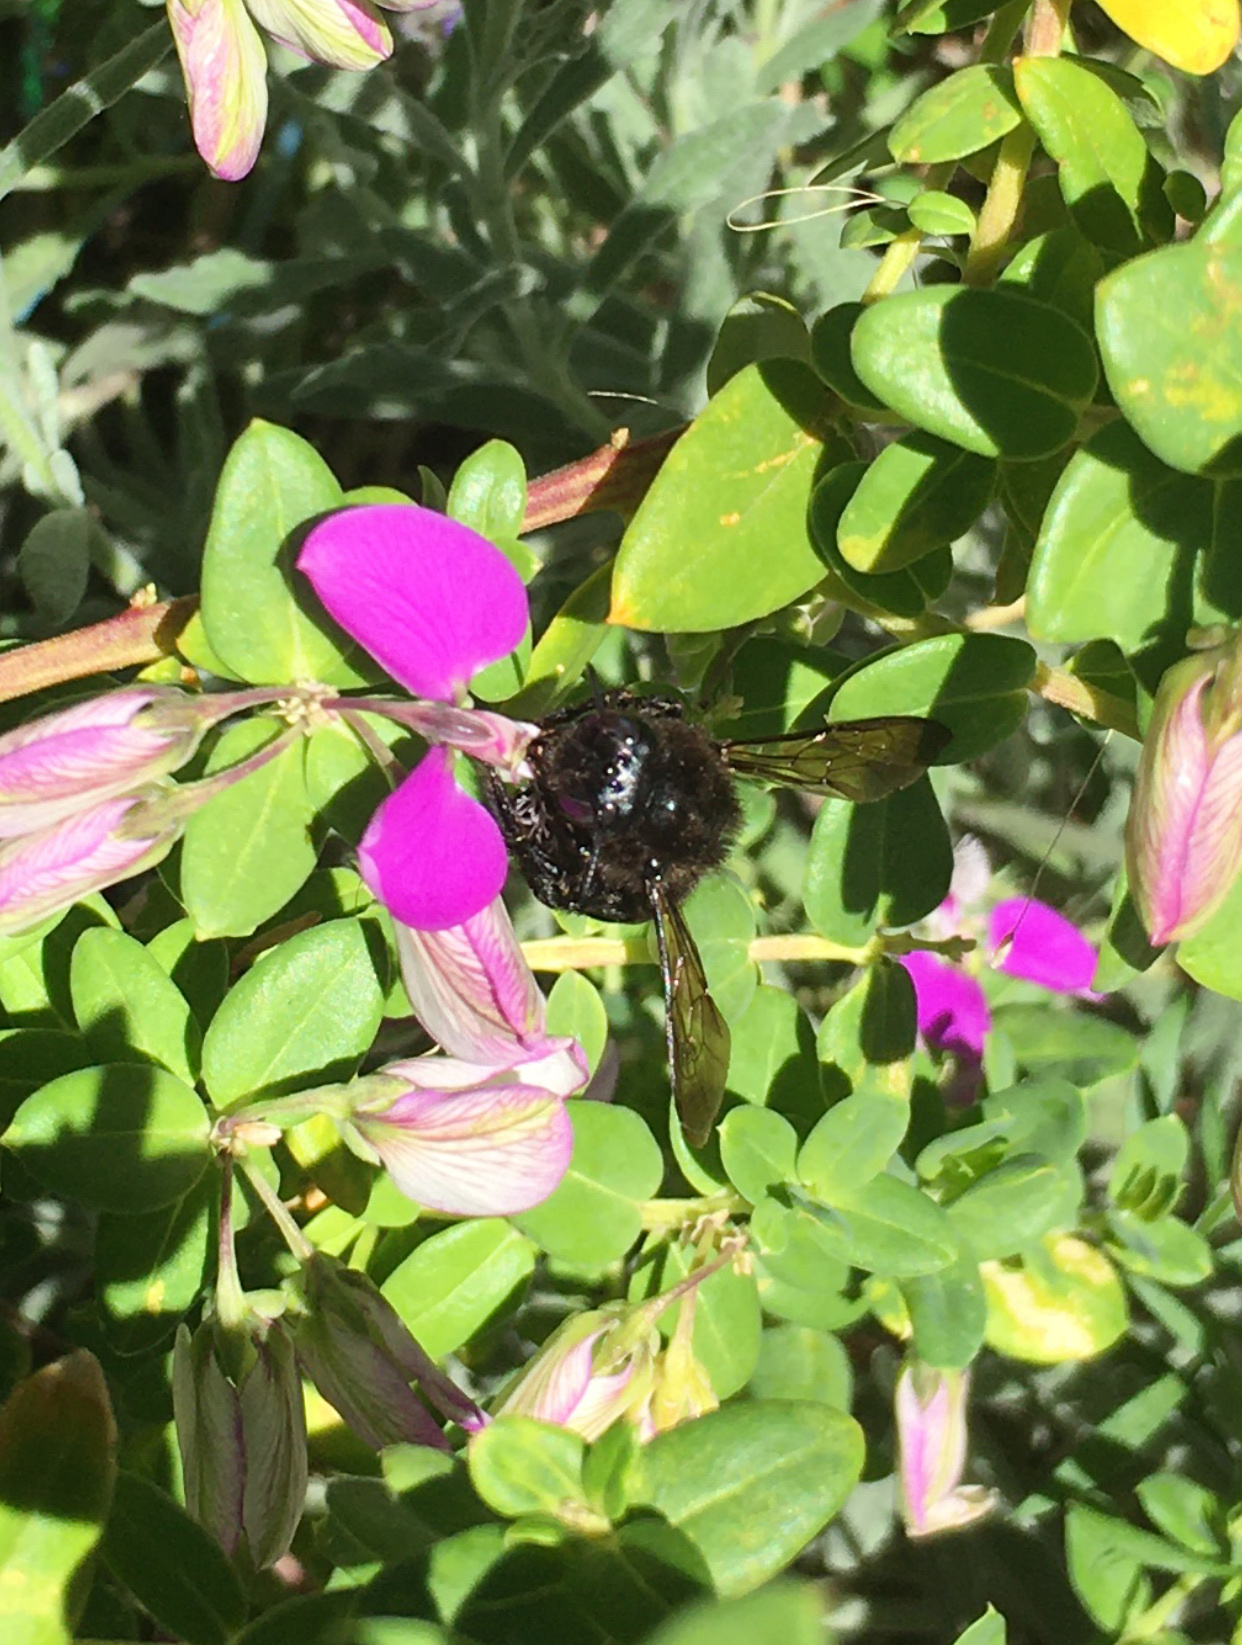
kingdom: Animalia
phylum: Arthropoda
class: Insecta
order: Hymenoptera
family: Apidae
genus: Xylocopa
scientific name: Xylocopa tabaniformis
